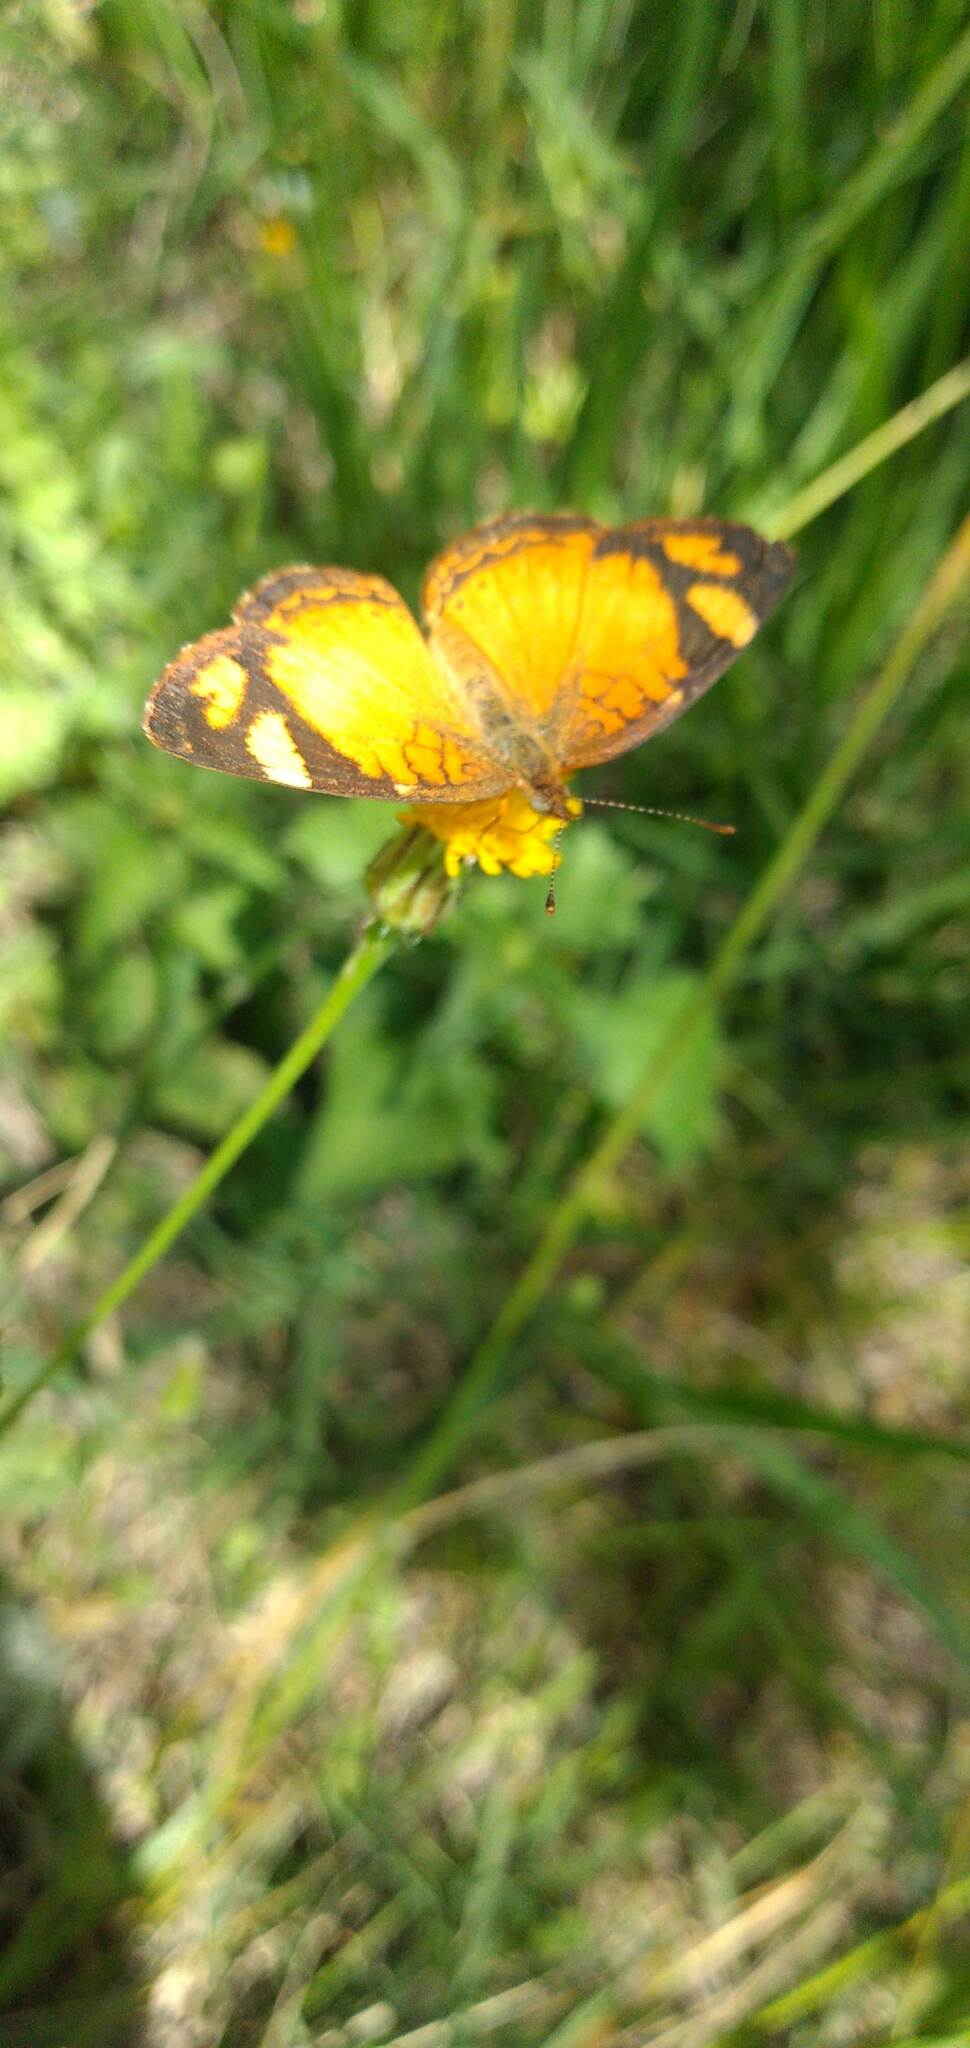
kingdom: Animalia
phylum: Arthropoda
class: Insecta
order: Lepidoptera
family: Nymphalidae
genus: Tegosa
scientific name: Tegosa claudina
